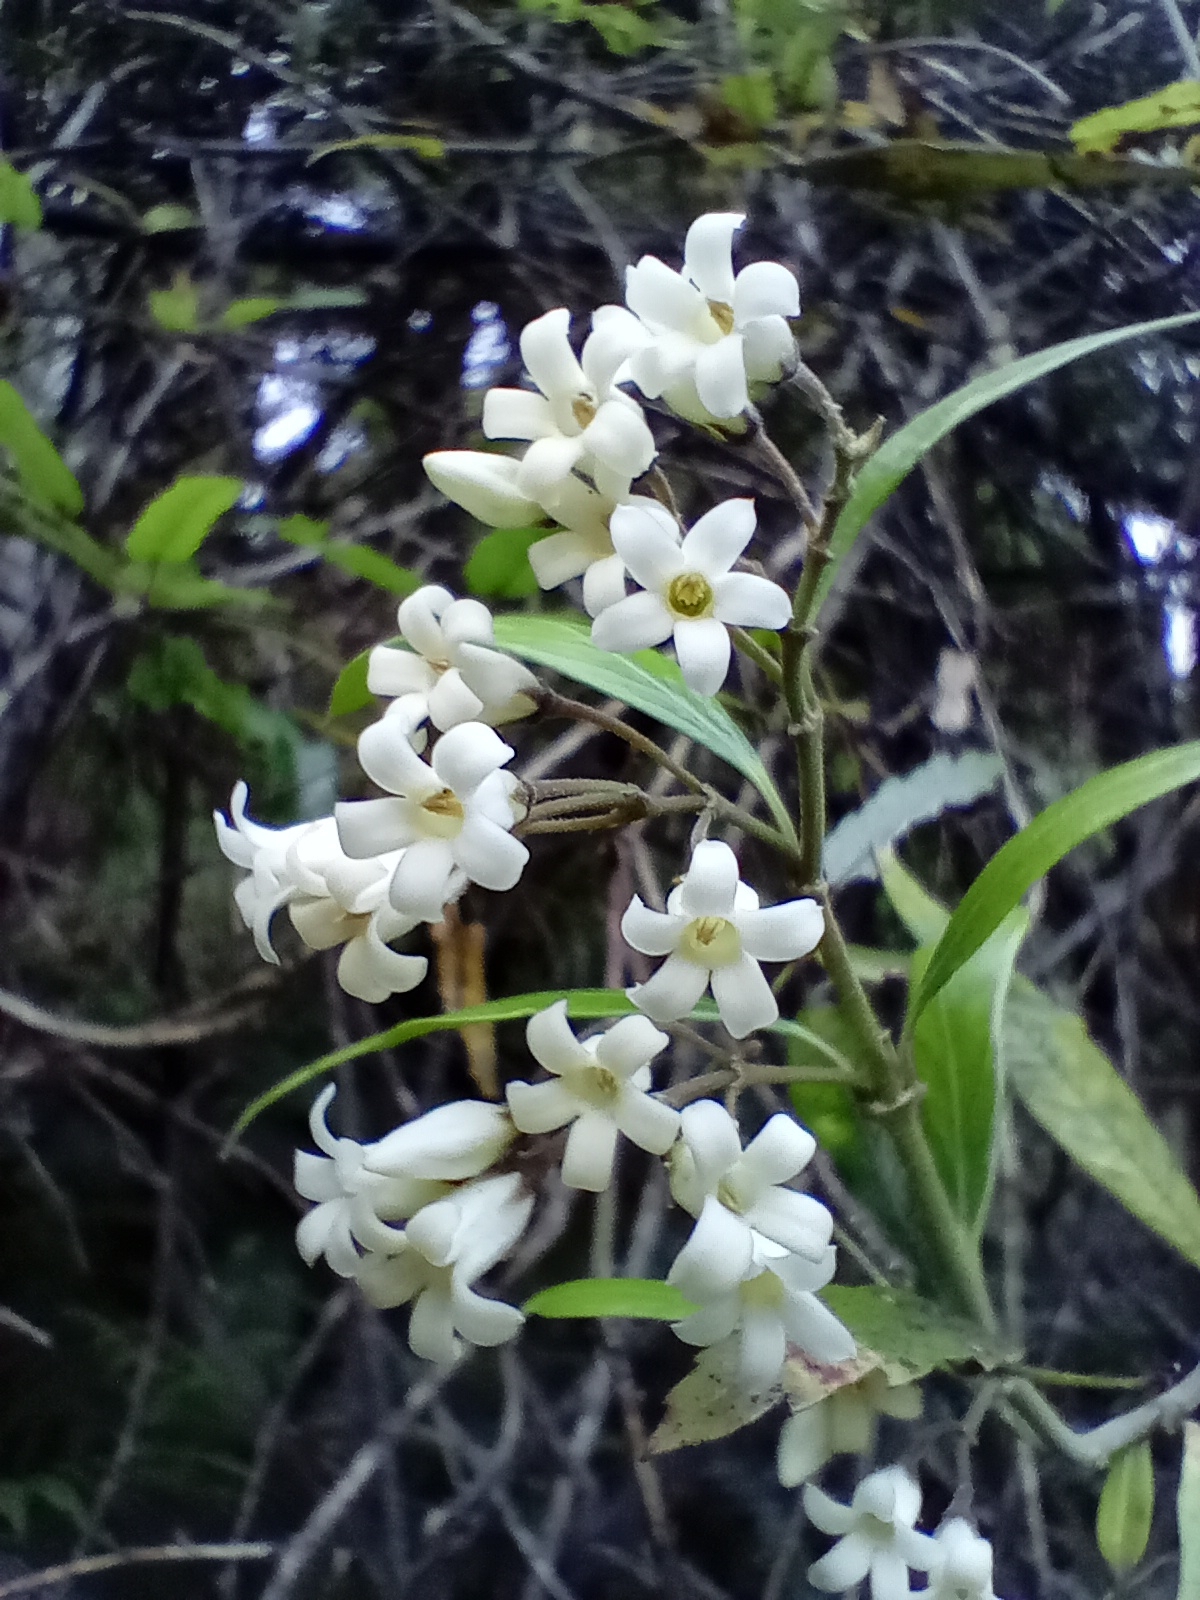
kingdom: Plantae
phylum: Tracheophyta
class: Magnoliopsida
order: Gentianales
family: Apocynaceae
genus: Parsonsia
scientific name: Parsonsia heterophylla
